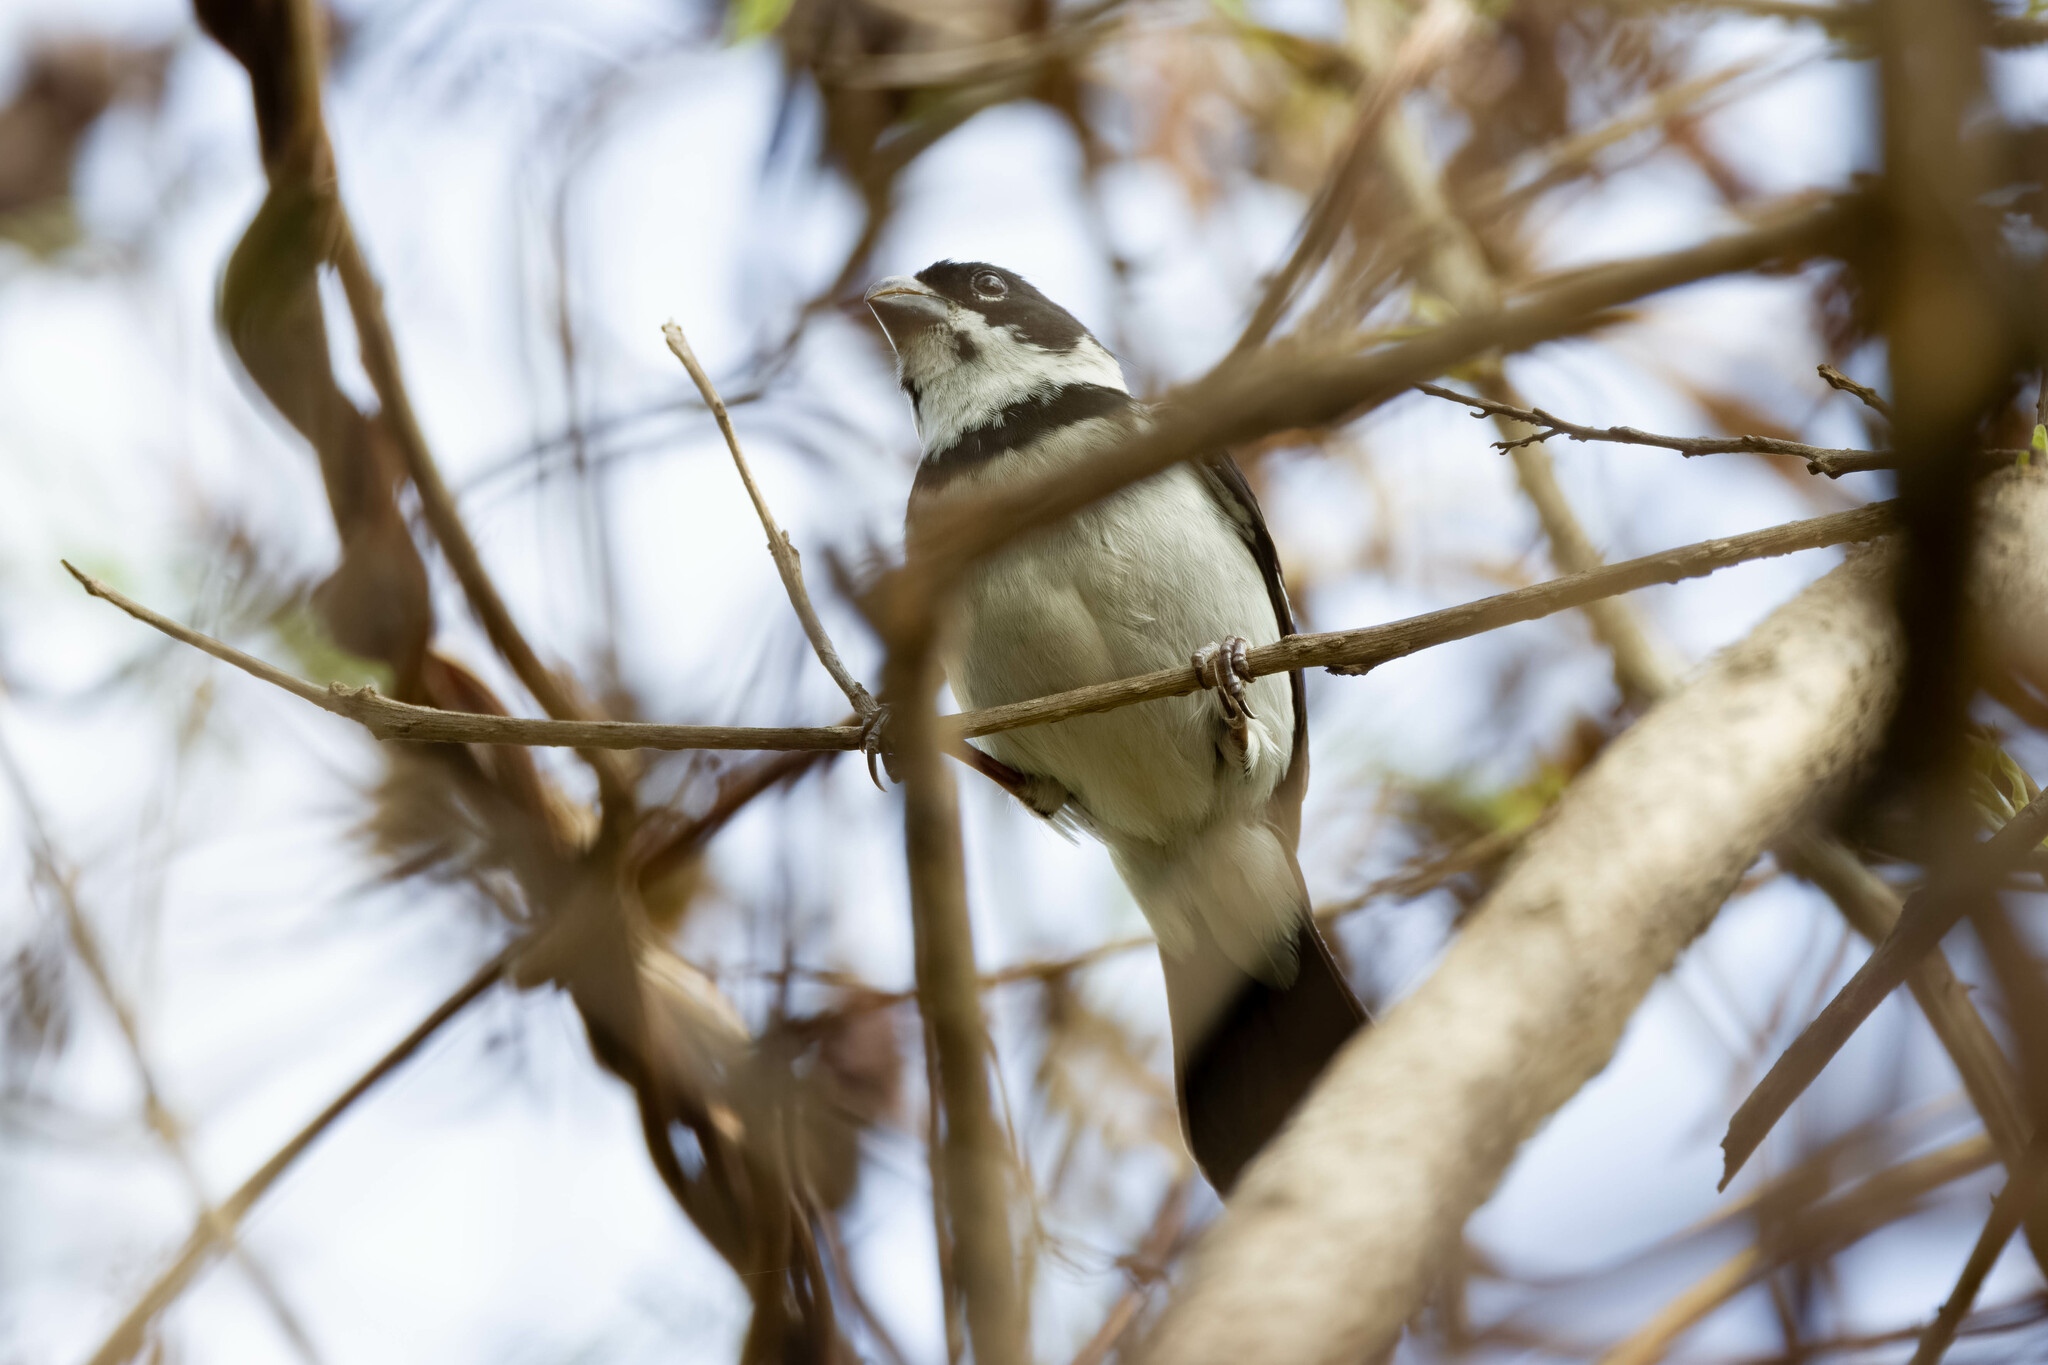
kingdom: Animalia
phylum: Chordata
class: Aves
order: Passeriformes
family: Thraupidae
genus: Sporophila
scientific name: Sporophila corvina
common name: Variable seedeater
